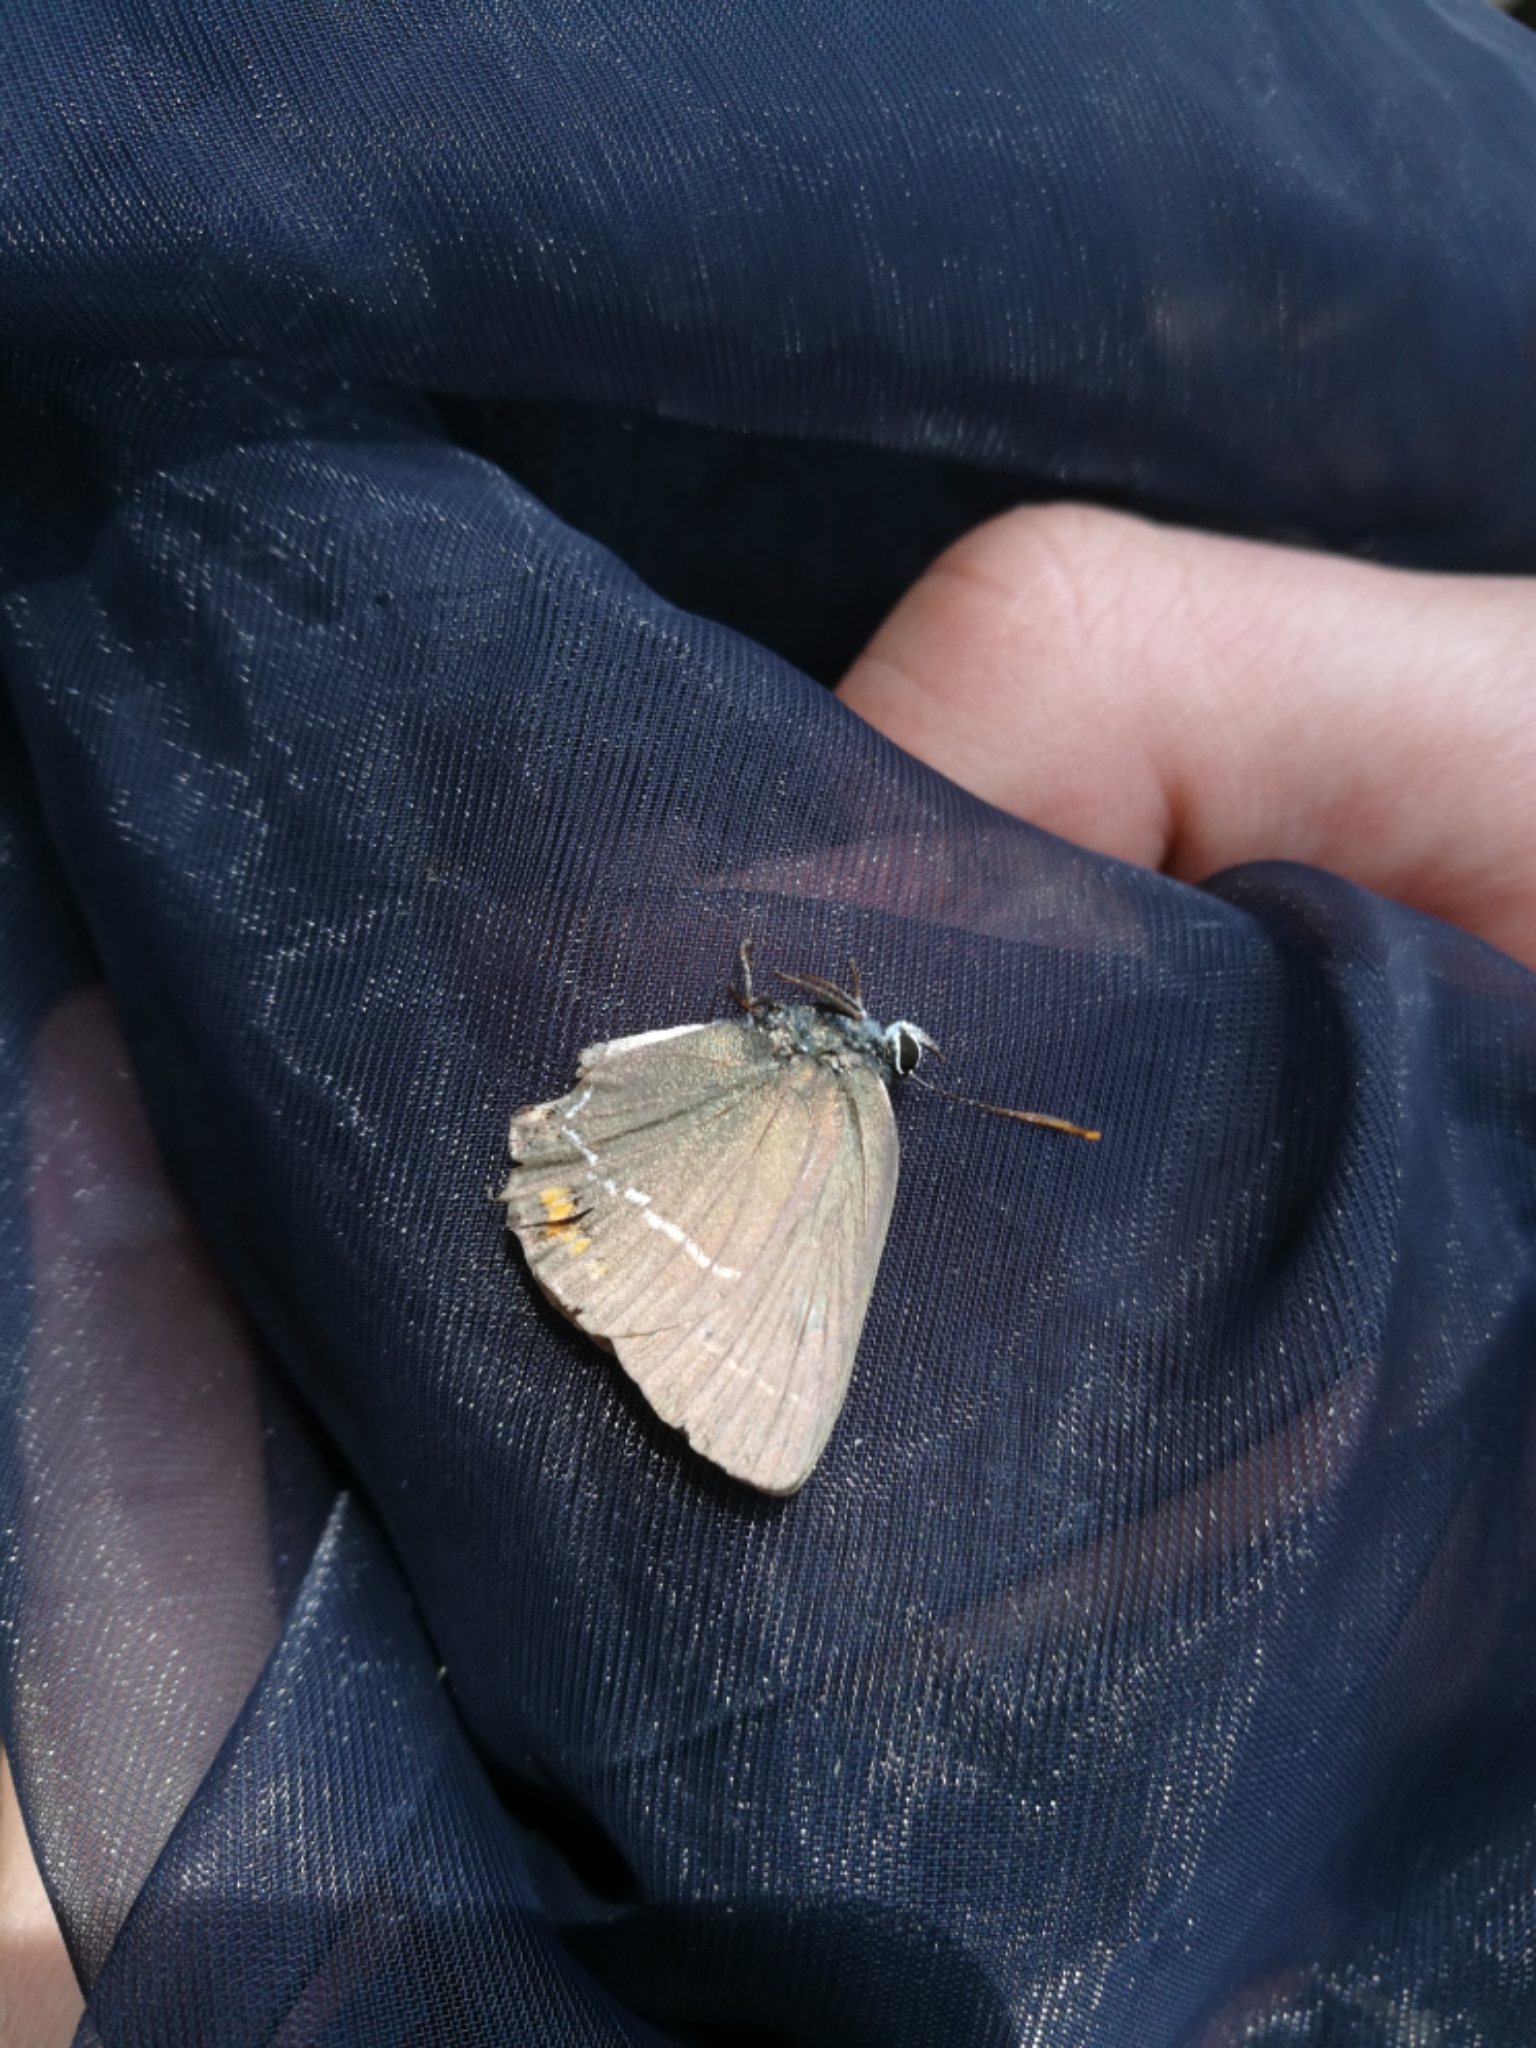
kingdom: Animalia
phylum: Arthropoda
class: Insecta
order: Lepidoptera
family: Lycaenidae
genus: Tuttiola
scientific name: Tuttiola spini
